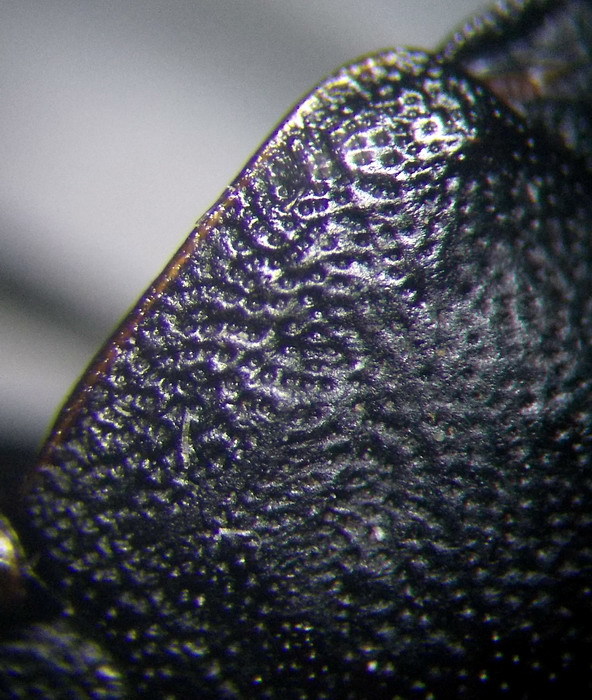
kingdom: Animalia
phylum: Arthropoda
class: Insecta
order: Hemiptera
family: Scutelleridae
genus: Eurygaster
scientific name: Eurygaster integriceps
